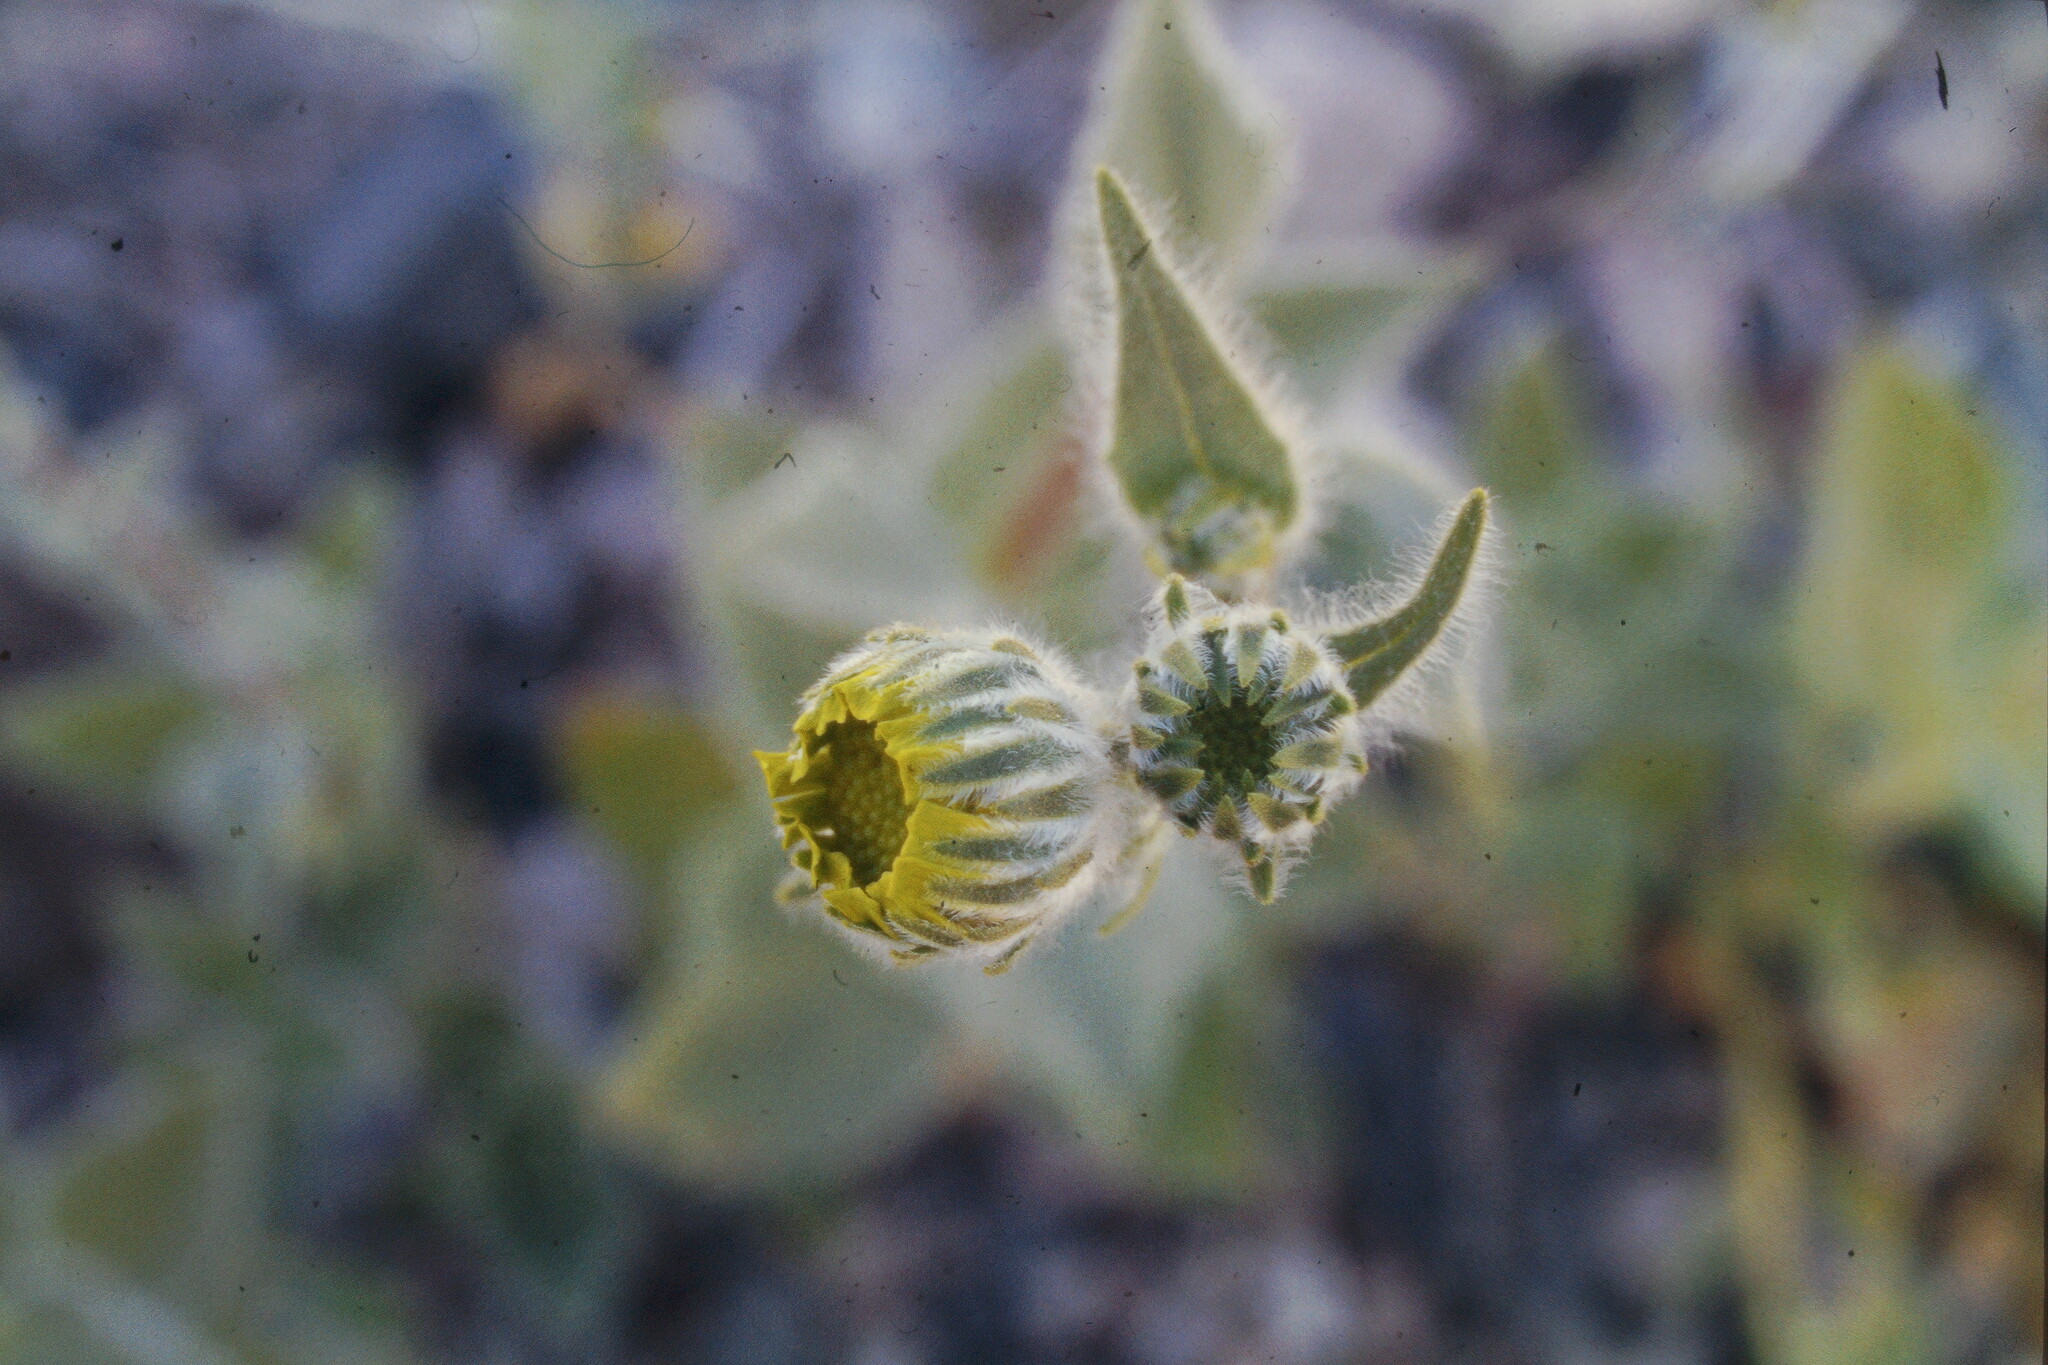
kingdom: Plantae
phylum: Tracheophyta
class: Magnoliopsida
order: Asterales
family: Asteraceae
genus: Geraea
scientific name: Geraea canescens
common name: Desert-gold
